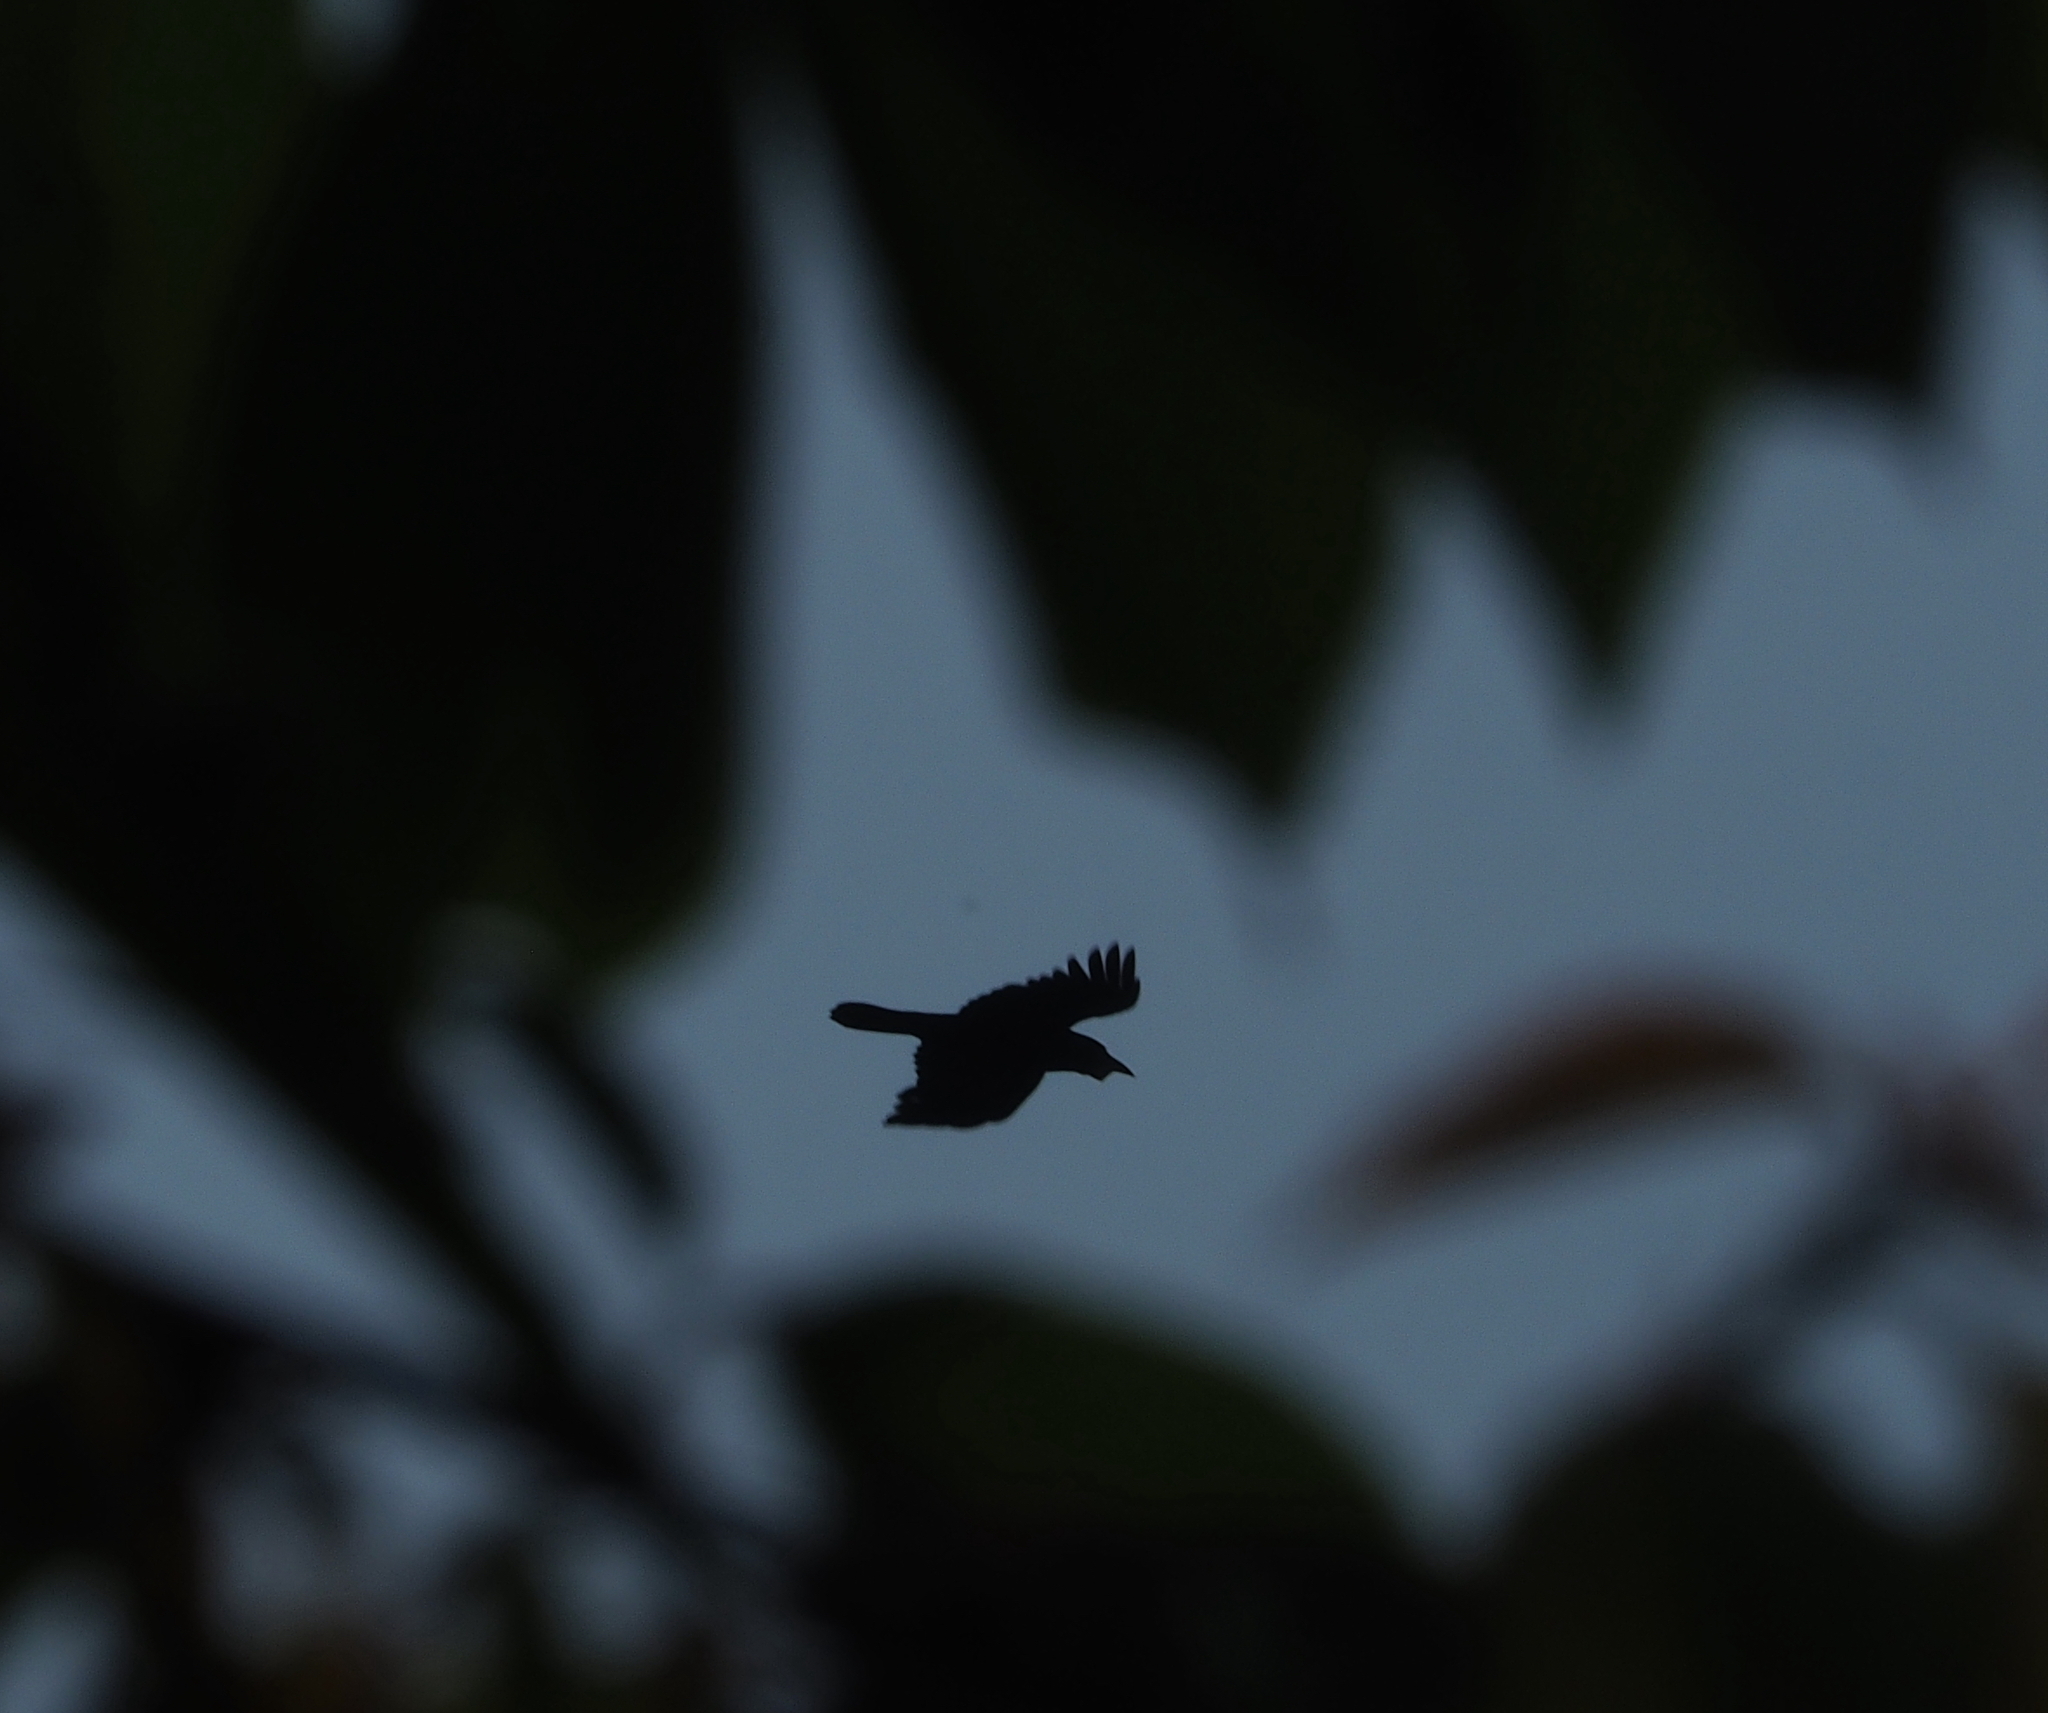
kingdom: Animalia
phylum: Chordata
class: Aves
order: Passeriformes
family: Corvidae
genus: Corvus
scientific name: Corvus frugilegus
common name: Rook
